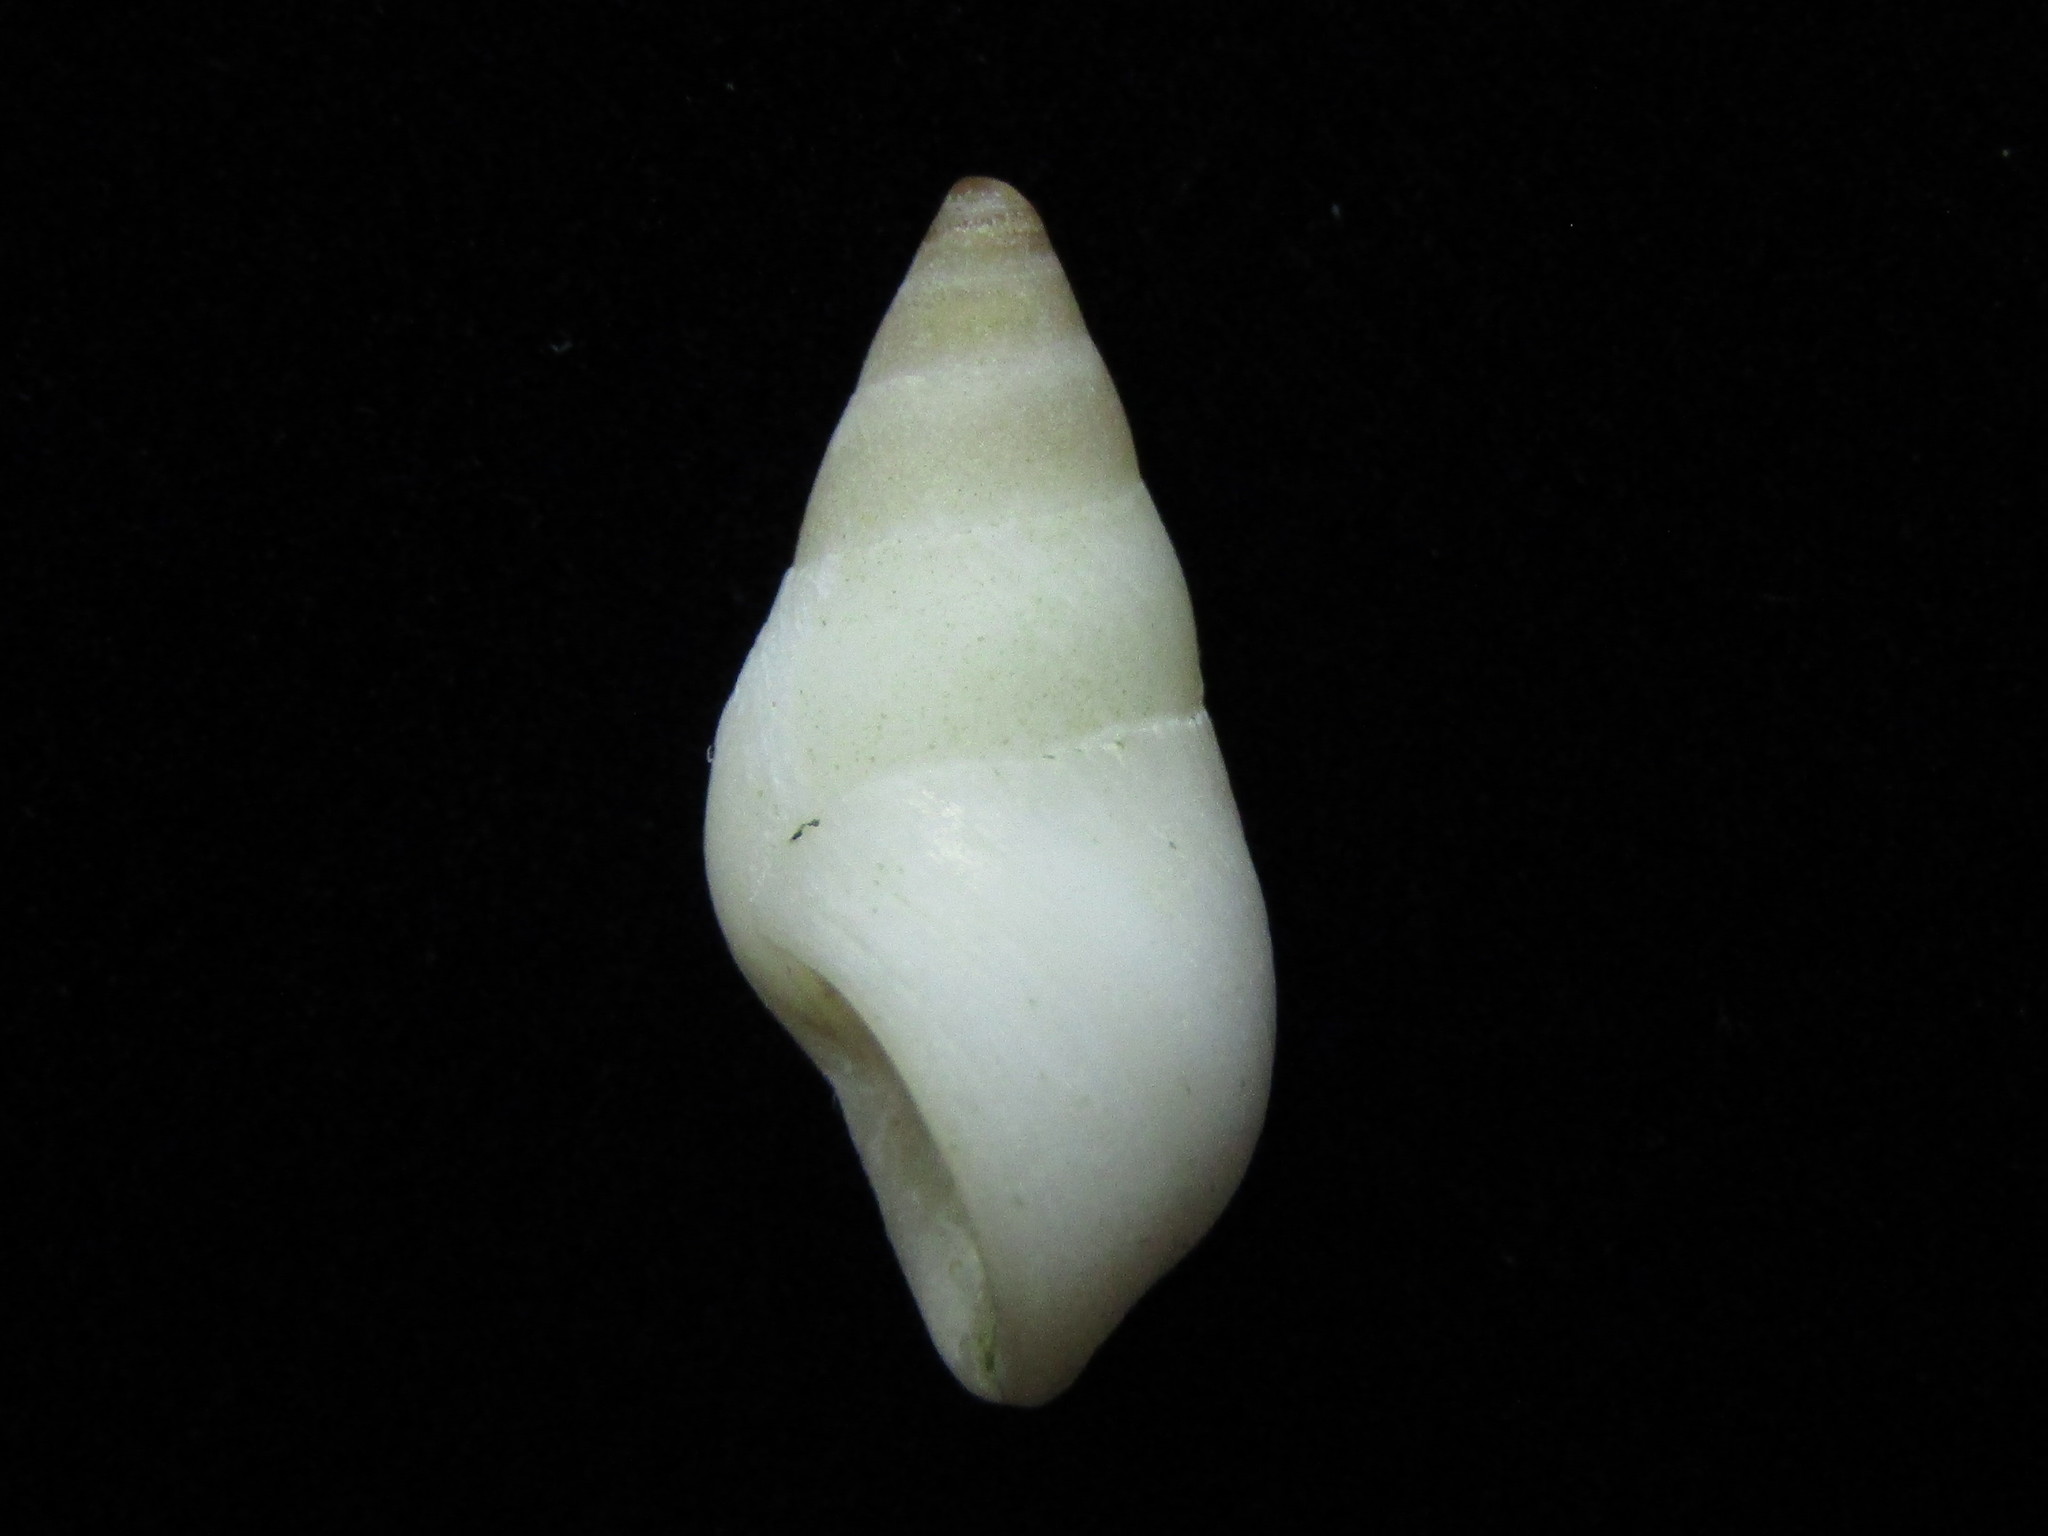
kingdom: Animalia
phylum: Mollusca
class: Gastropoda
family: Planaxidae
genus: Hinea
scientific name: Hinea brasiliana
